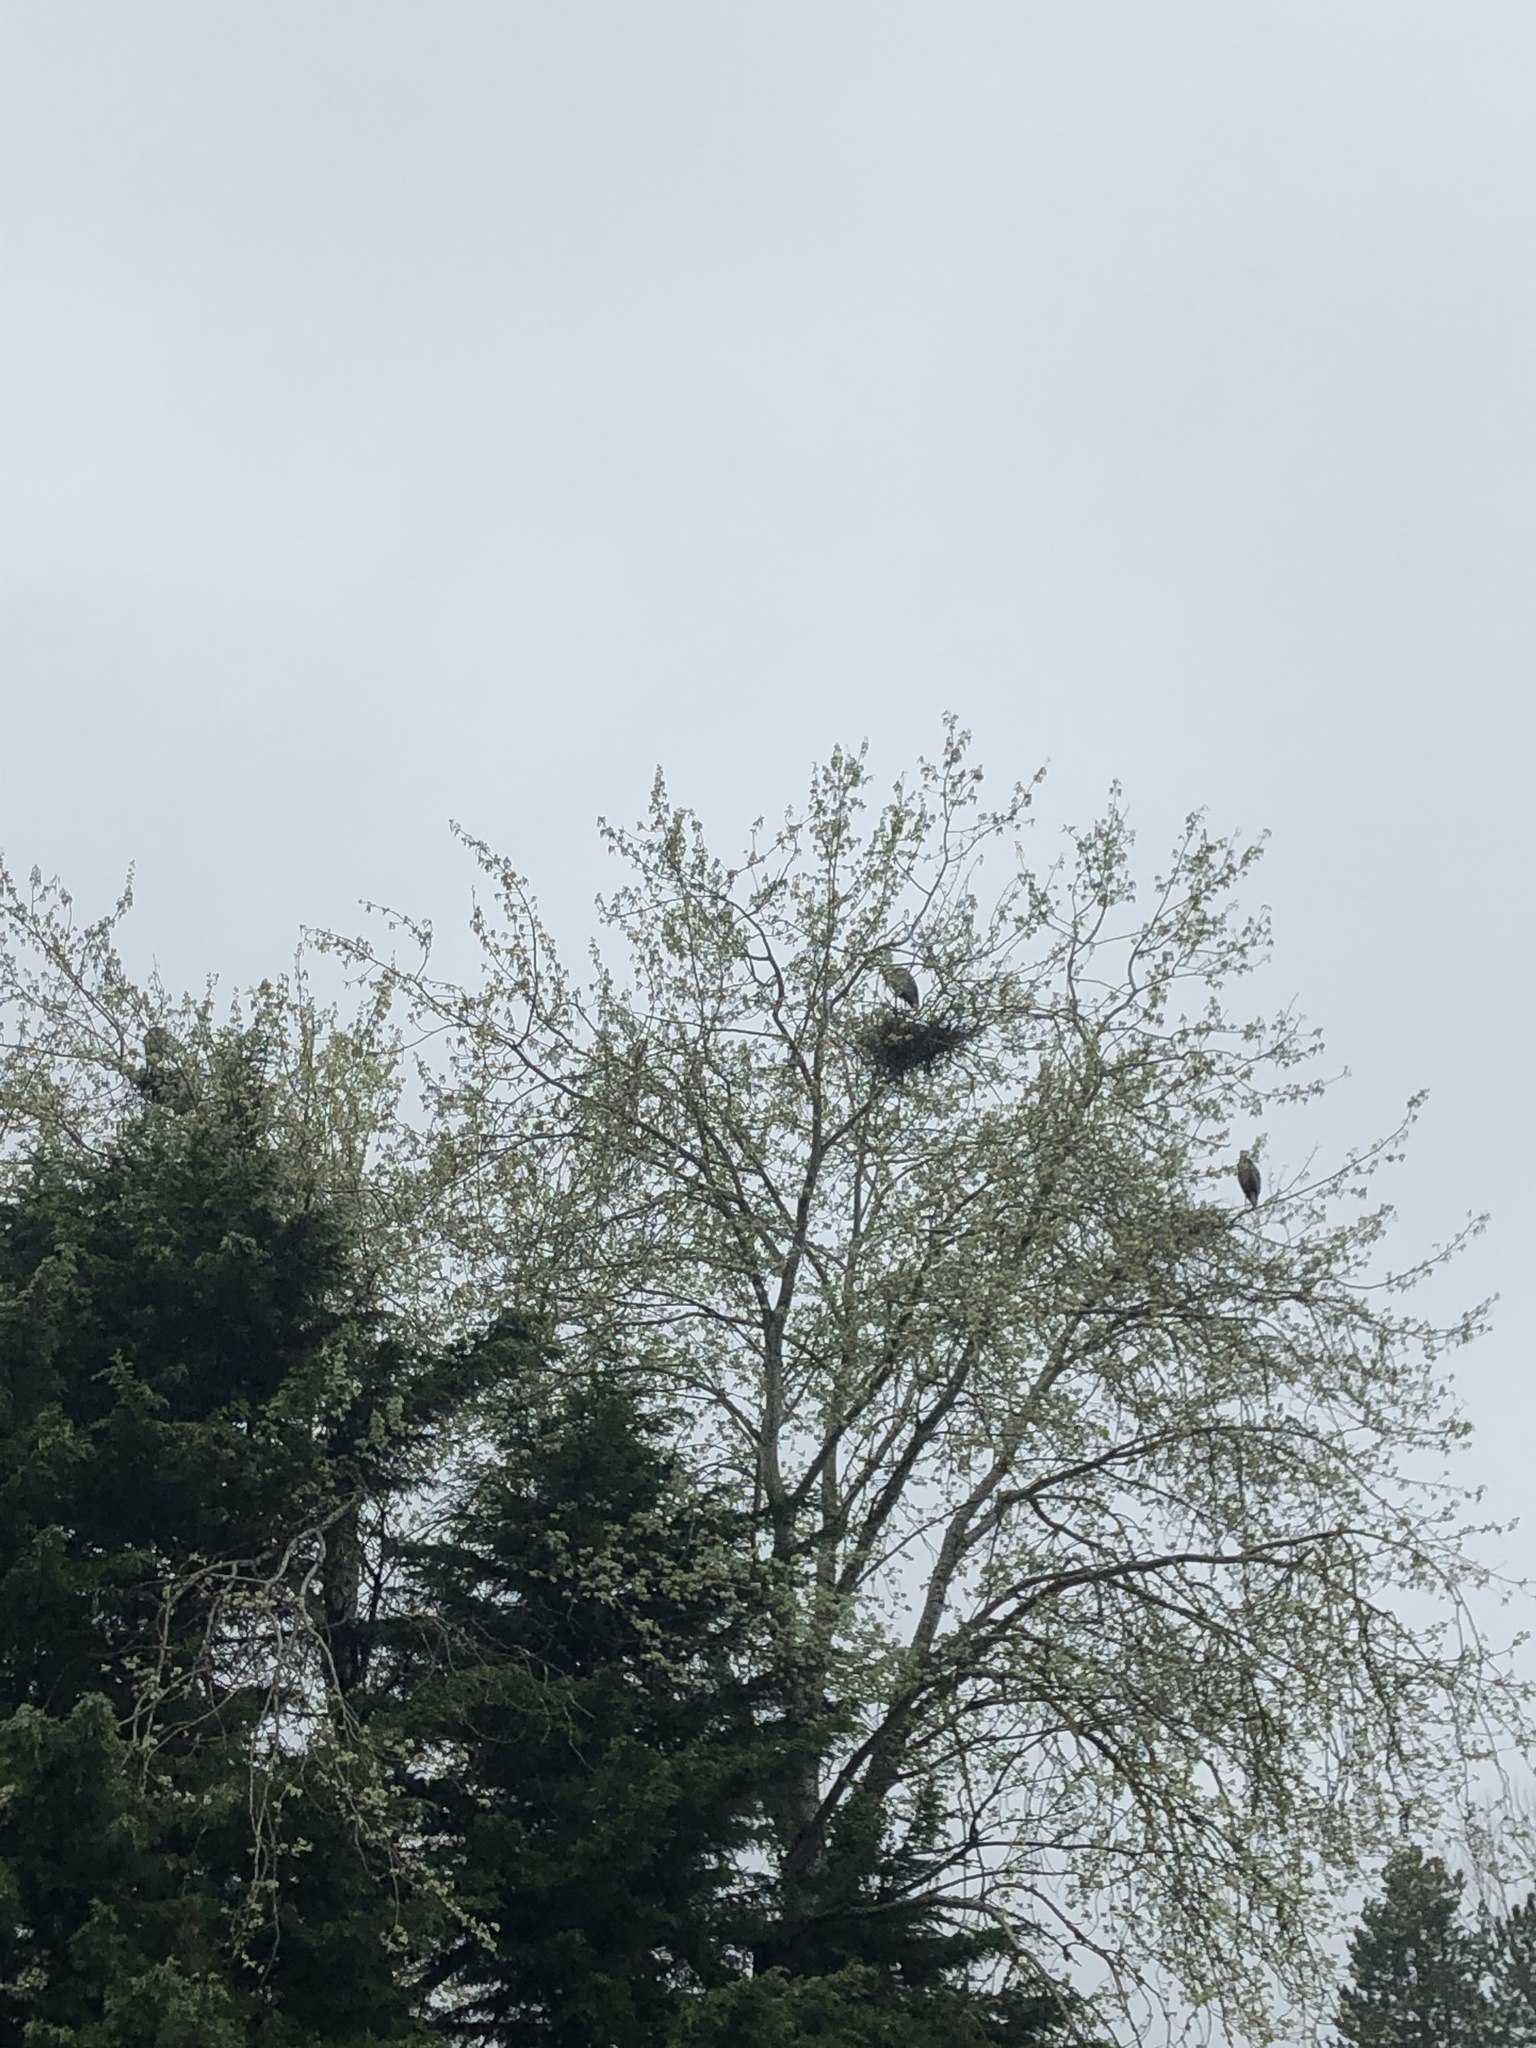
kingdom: Animalia
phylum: Chordata
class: Aves
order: Pelecaniformes
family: Ardeidae
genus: Ardea
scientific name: Ardea herodias
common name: Great blue heron
